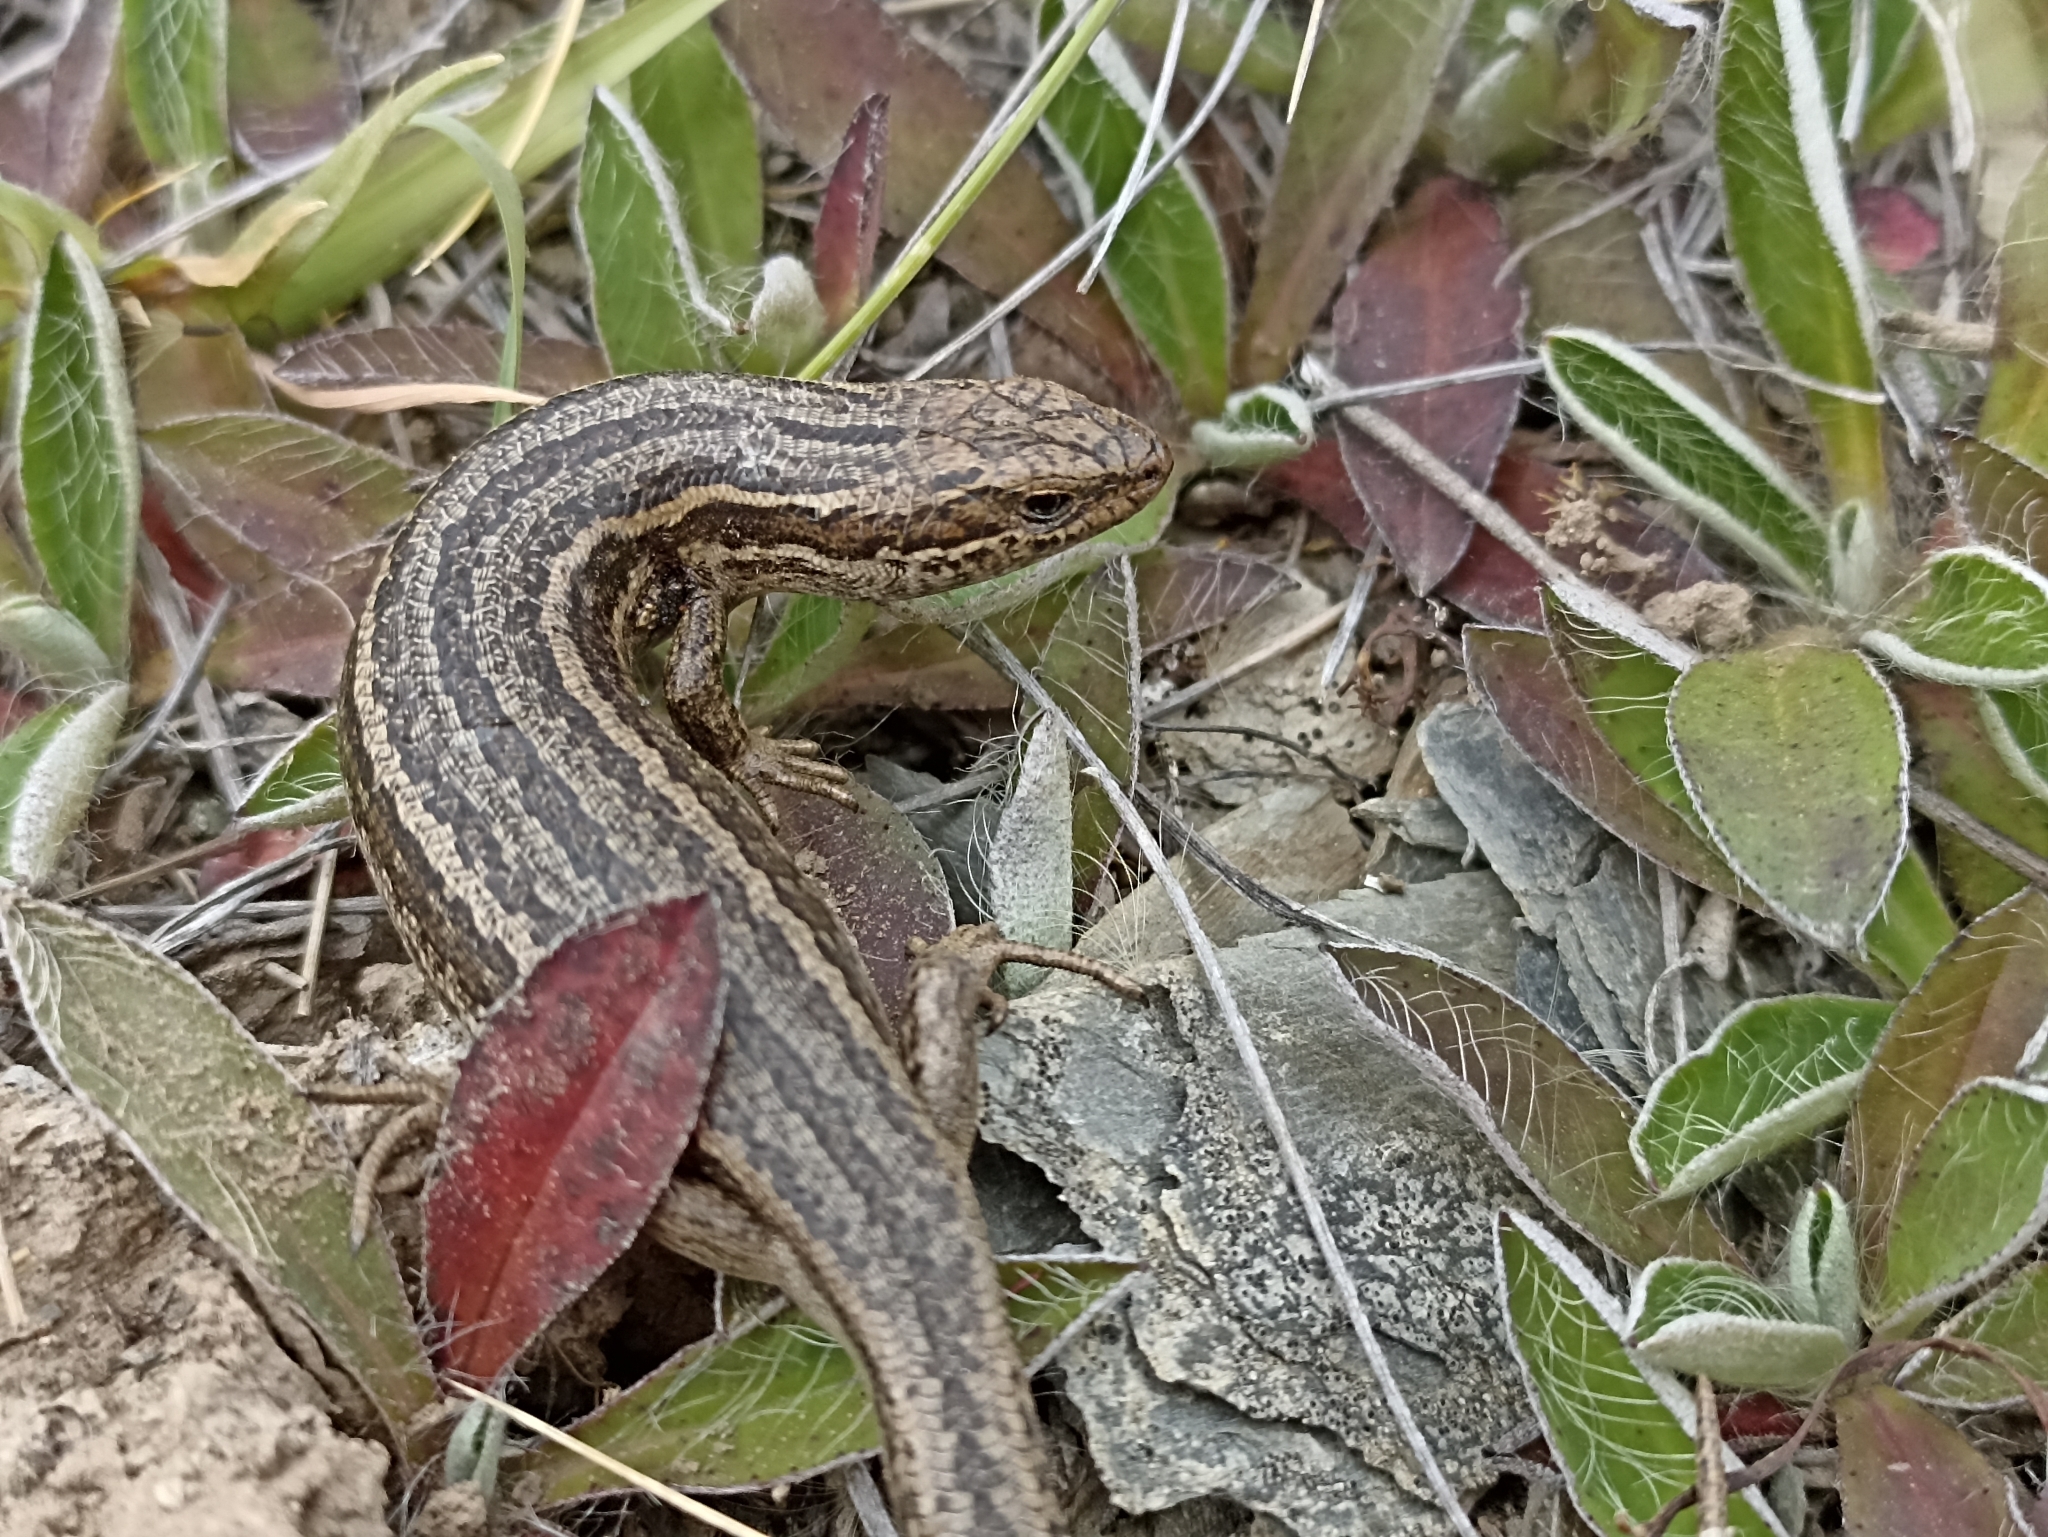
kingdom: Animalia
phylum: Chordata
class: Squamata
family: Scincidae
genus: Oligosoma
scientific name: Oligosoma maccanni
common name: Mccann’s skink
